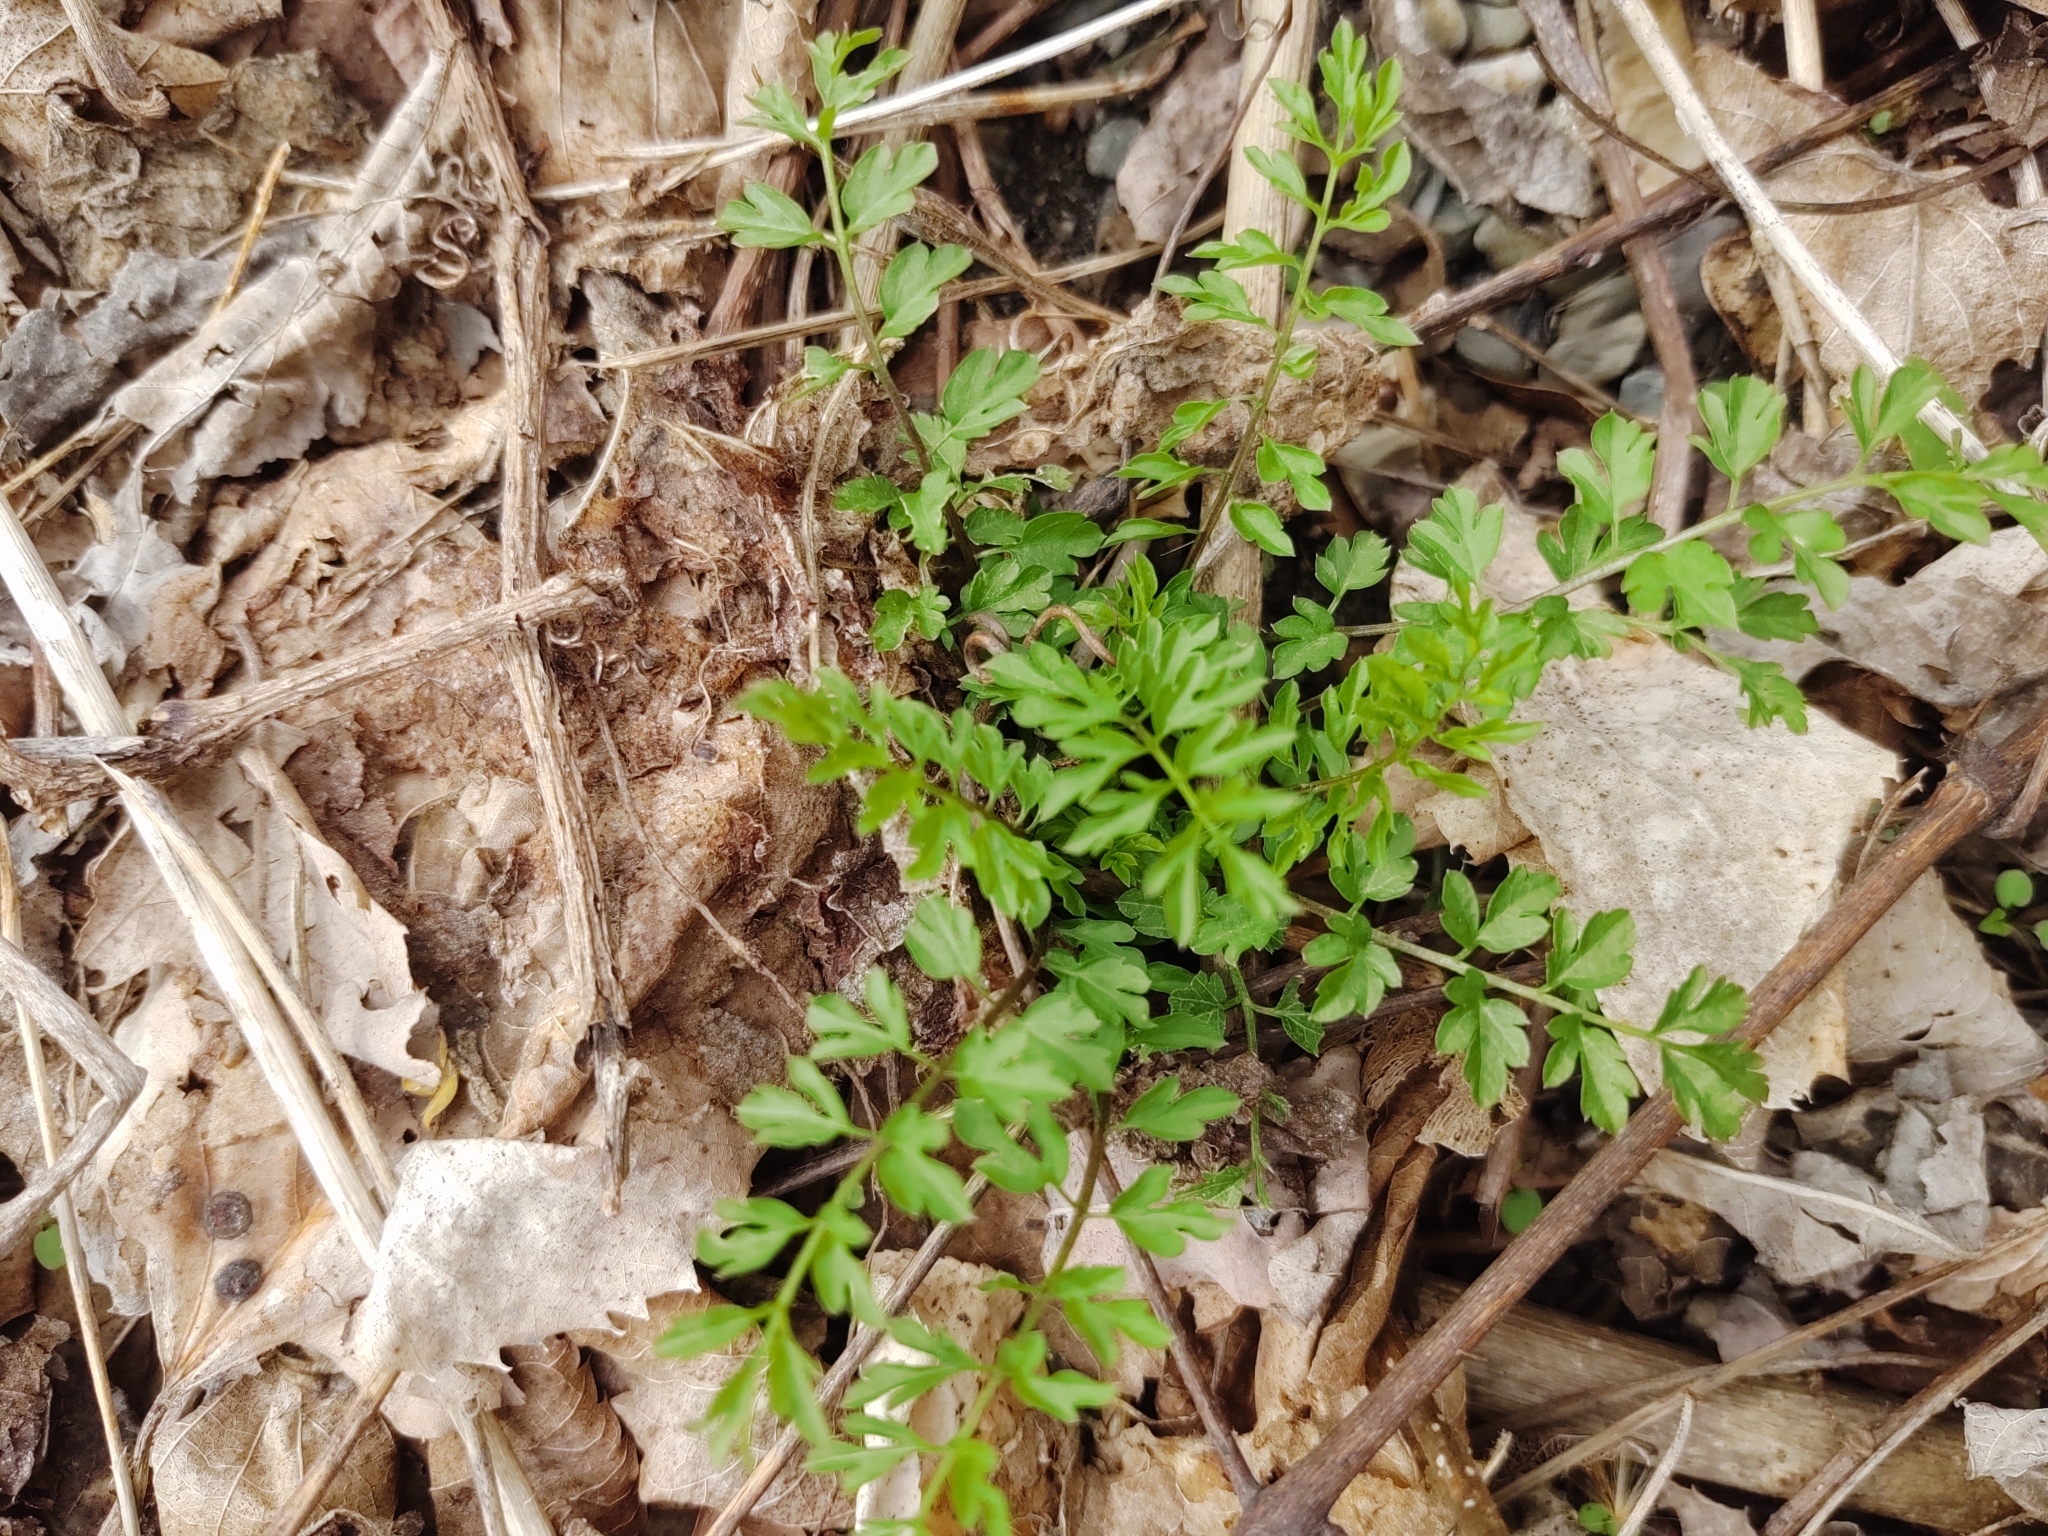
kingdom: Plantae
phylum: Tracheophyta
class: Magnoliopsida
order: Brassicales
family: Brassicaceae
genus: Cardamine
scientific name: Cardamine impatiens
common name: Narrow-leaved bitter-cress
